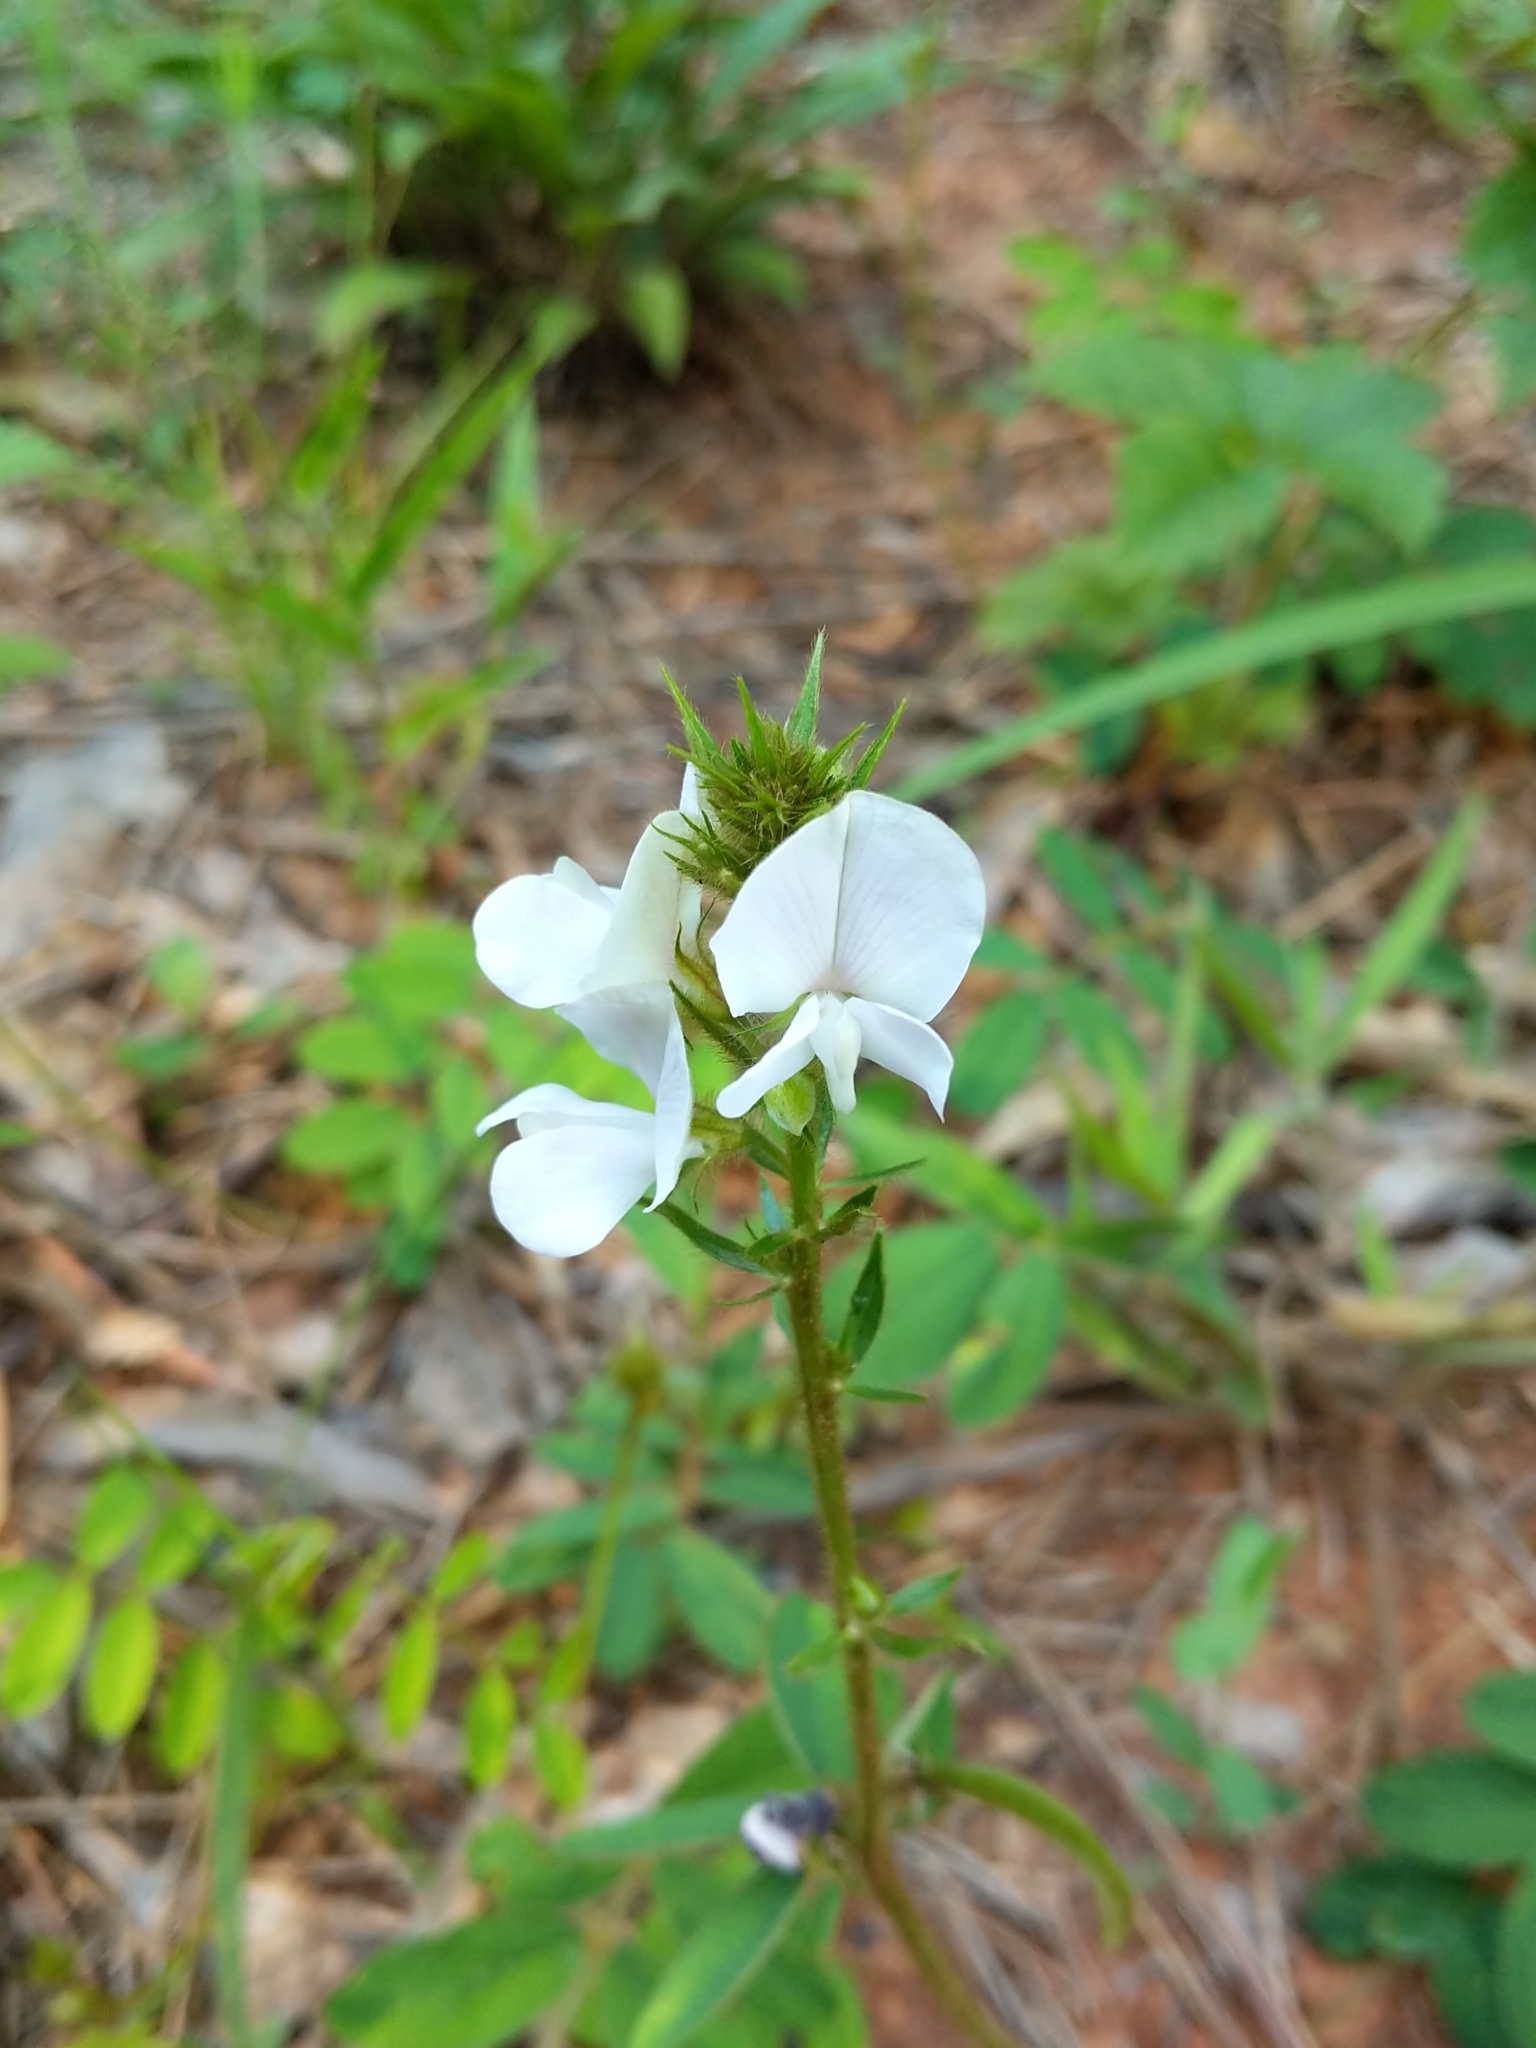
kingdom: Plantae
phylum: Tracheophyta
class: Magnoliopsida
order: Fabales
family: Fabaceae
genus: Tephrosia
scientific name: Tephrosia spicata
